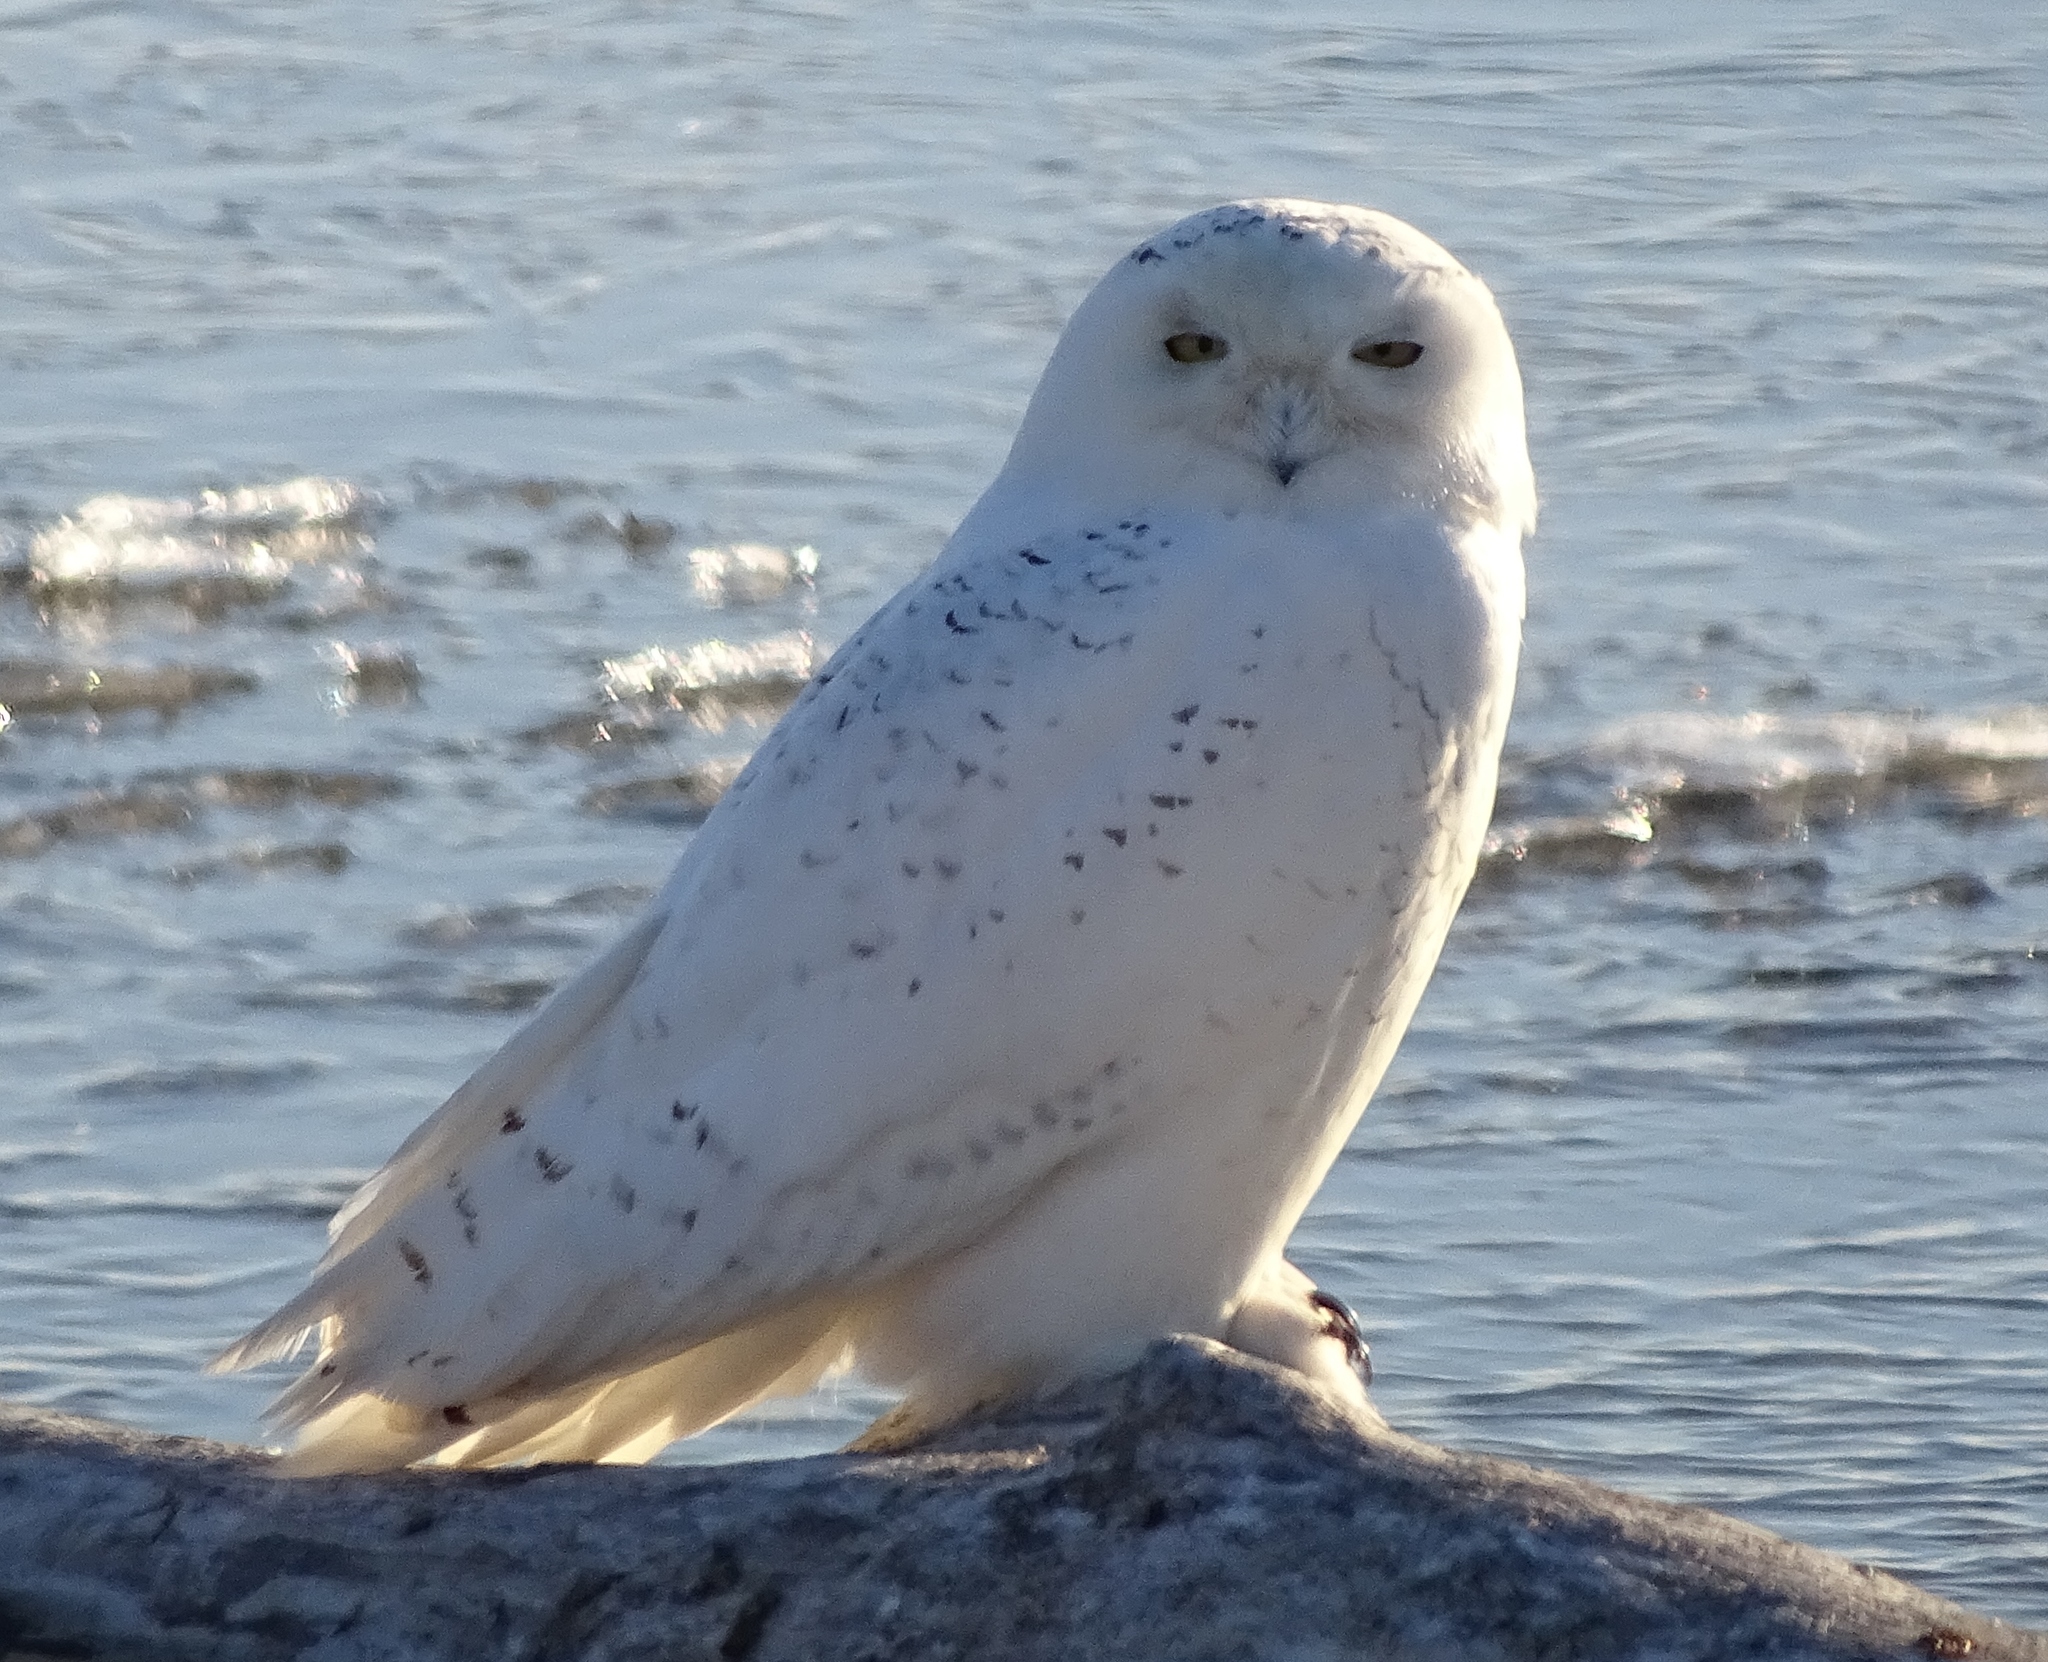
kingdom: Animalia
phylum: Chordata
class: Aves
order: Strigiformes
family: Strigidae
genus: Bubo
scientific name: Bubo scandiacus
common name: Snowy owl
